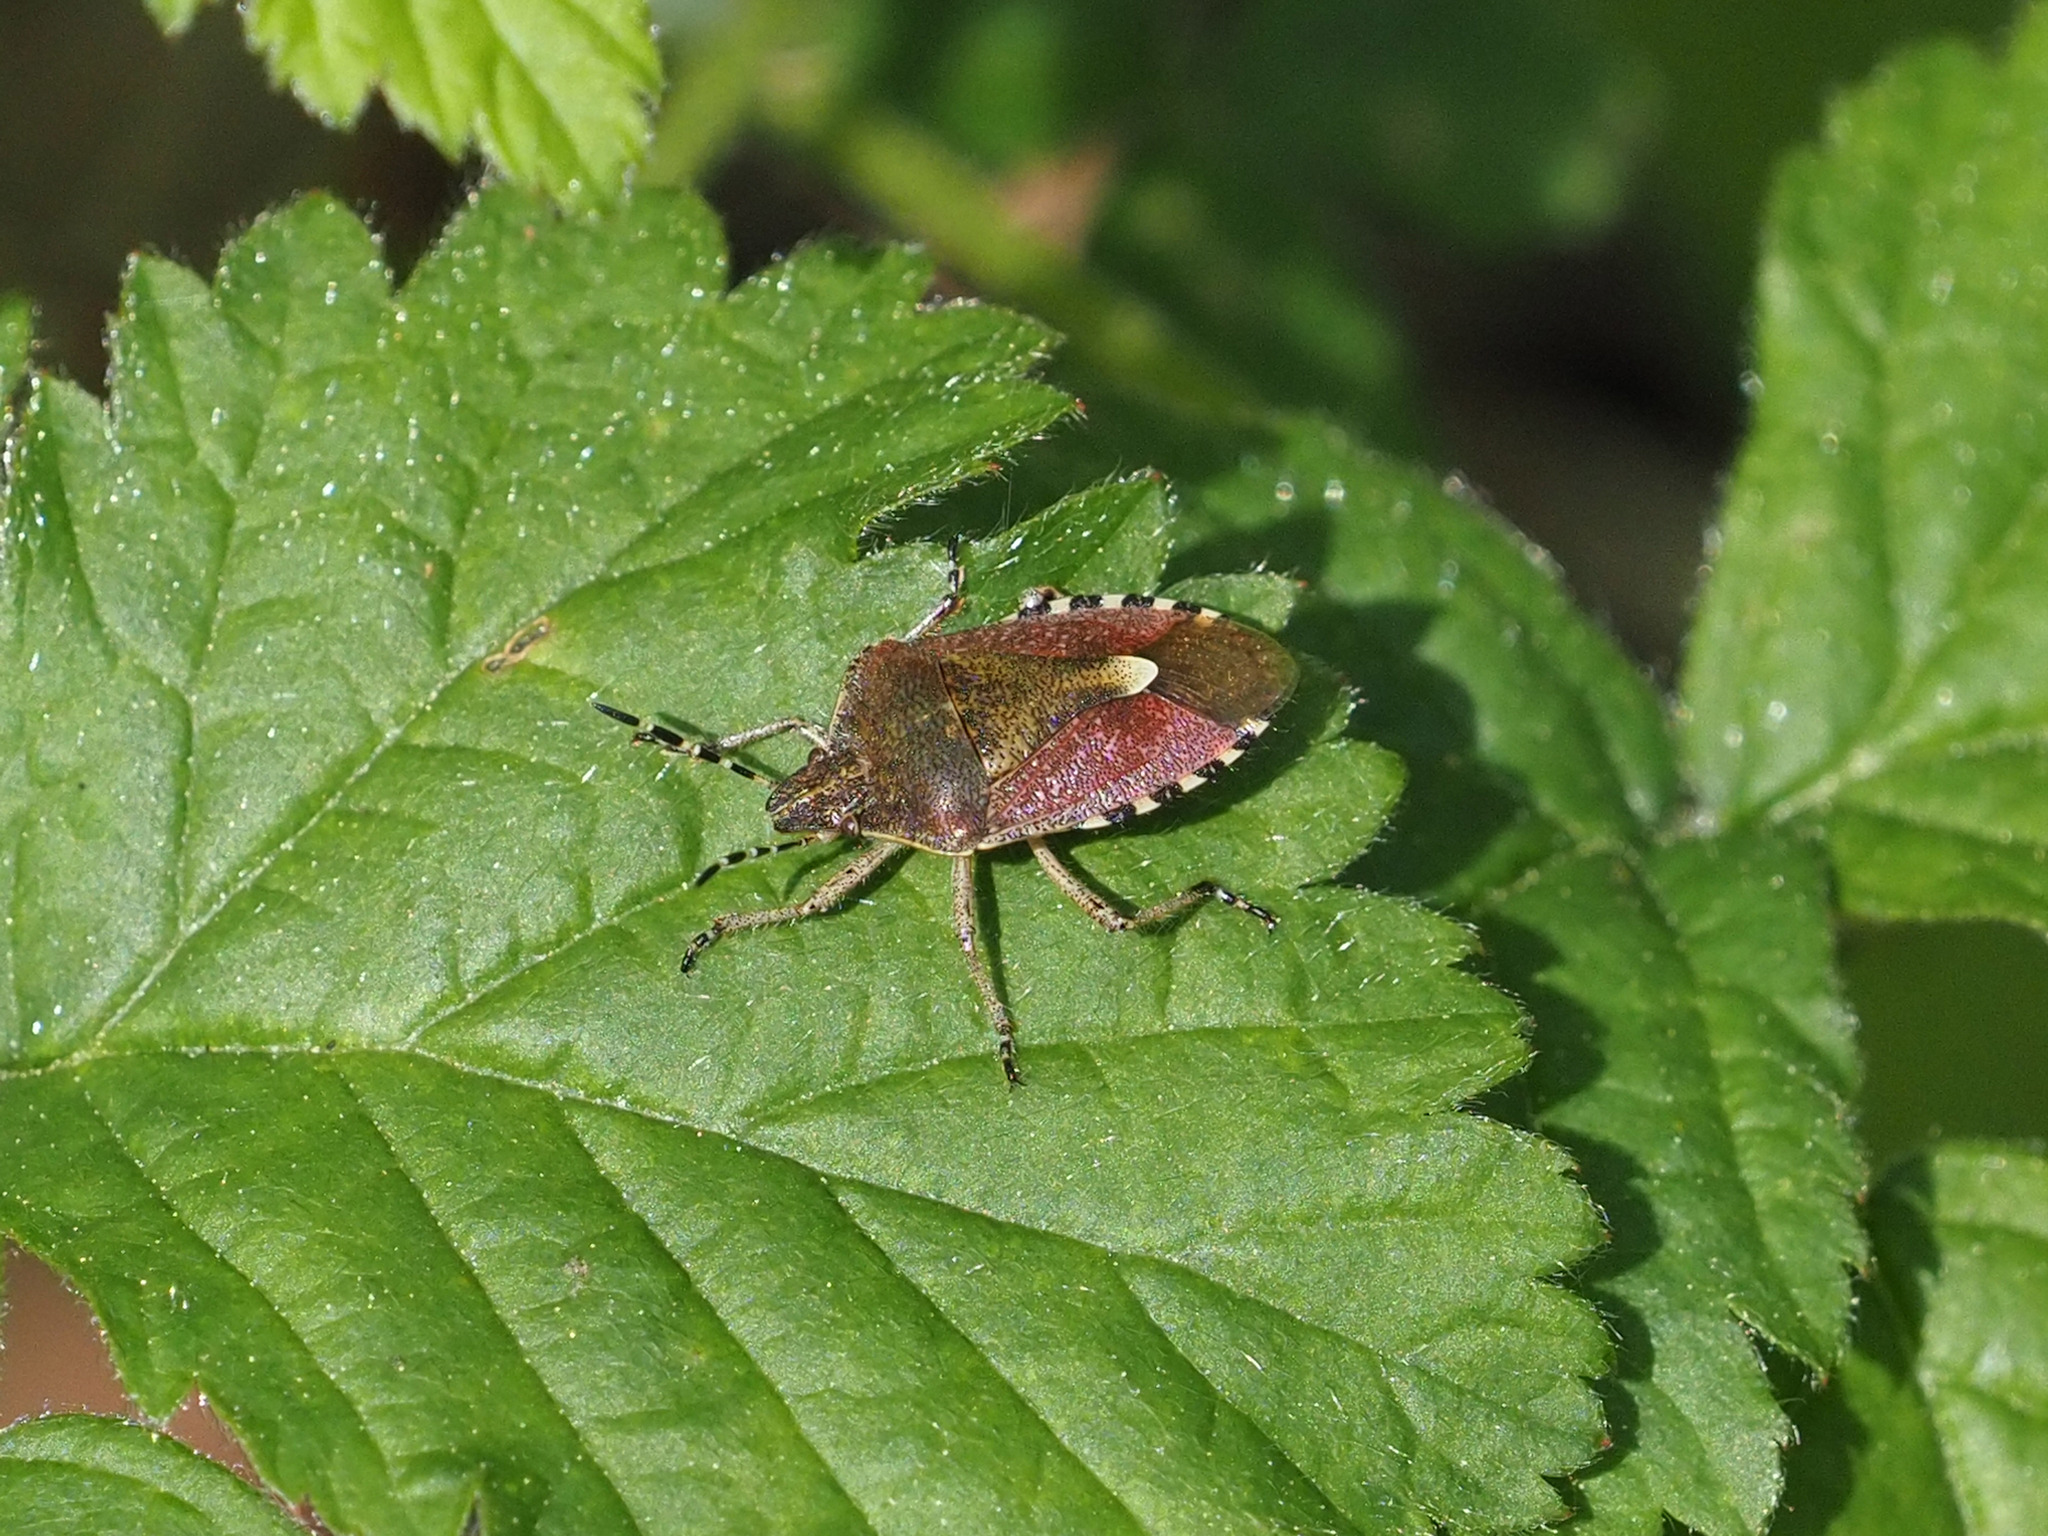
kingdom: Animalia
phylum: Arthropoda
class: Insecta
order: Hemiptera
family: Pentatomidae
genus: Dolycoris
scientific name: Dolycoris baccarum
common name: Sloe bug
